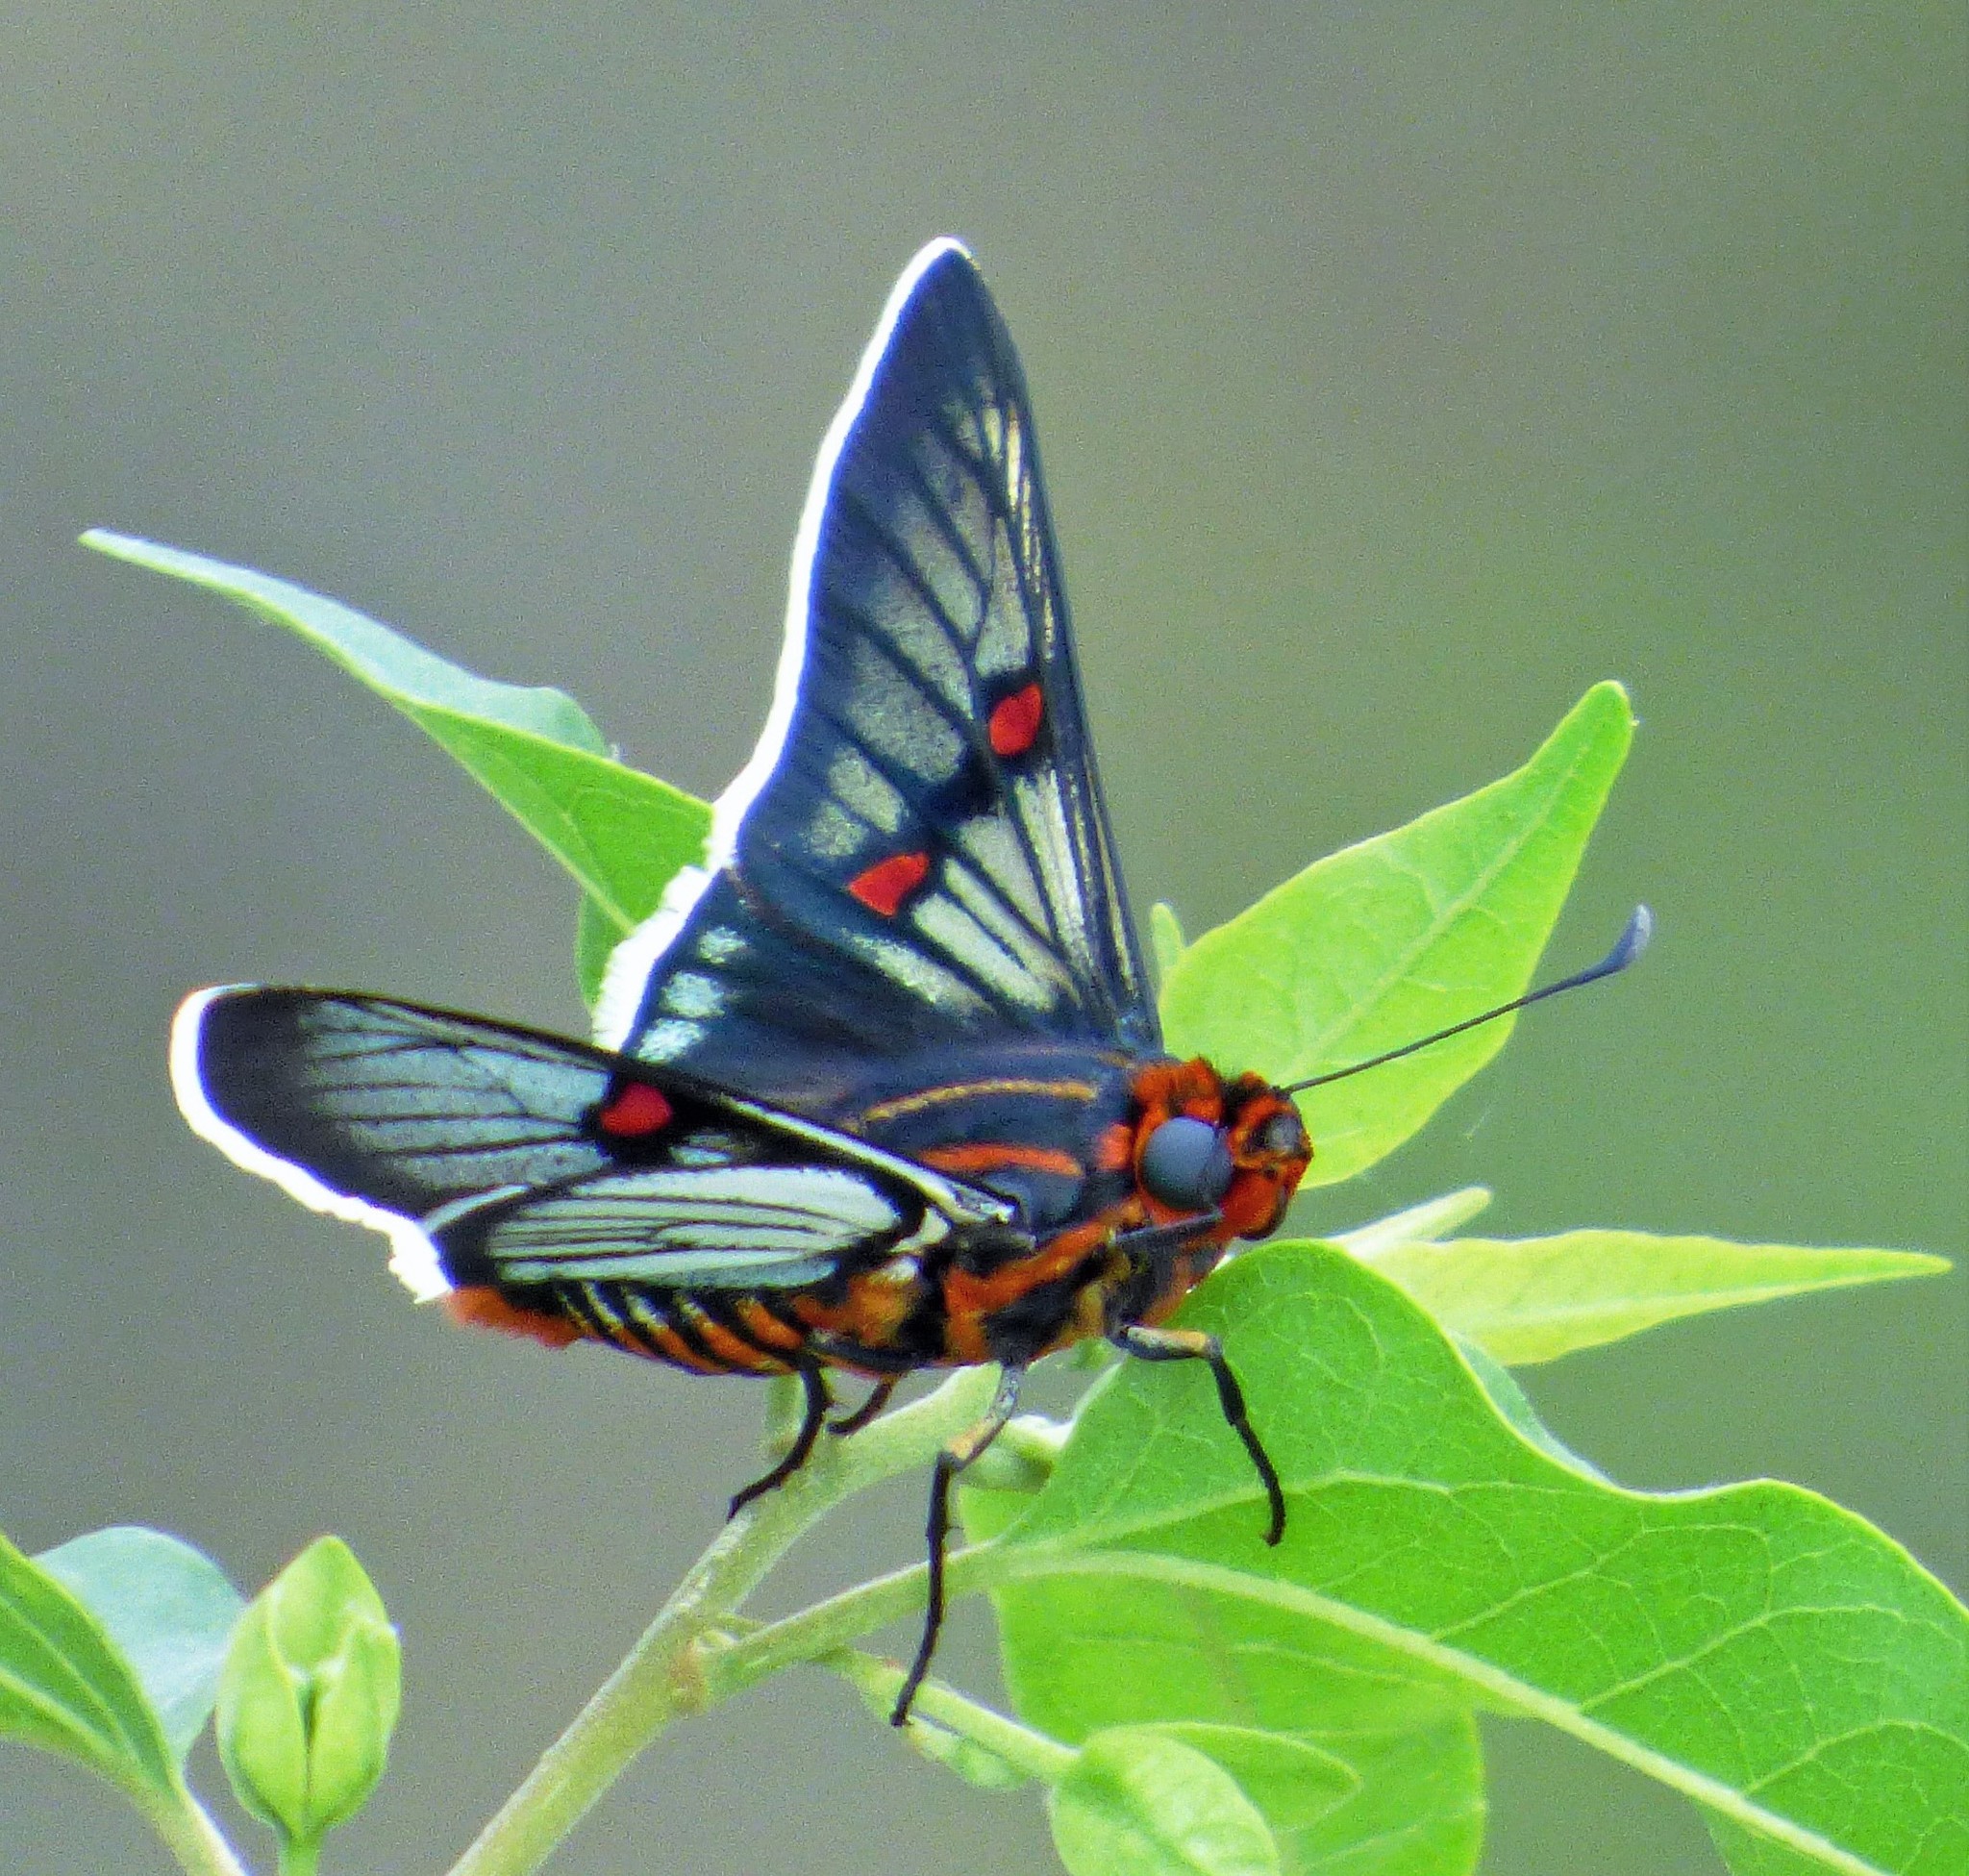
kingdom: Animalia
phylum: Arthropoda
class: Insecta
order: Lepidoptera
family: Hesperiidae
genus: Mimoniades
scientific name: Mimoniades
